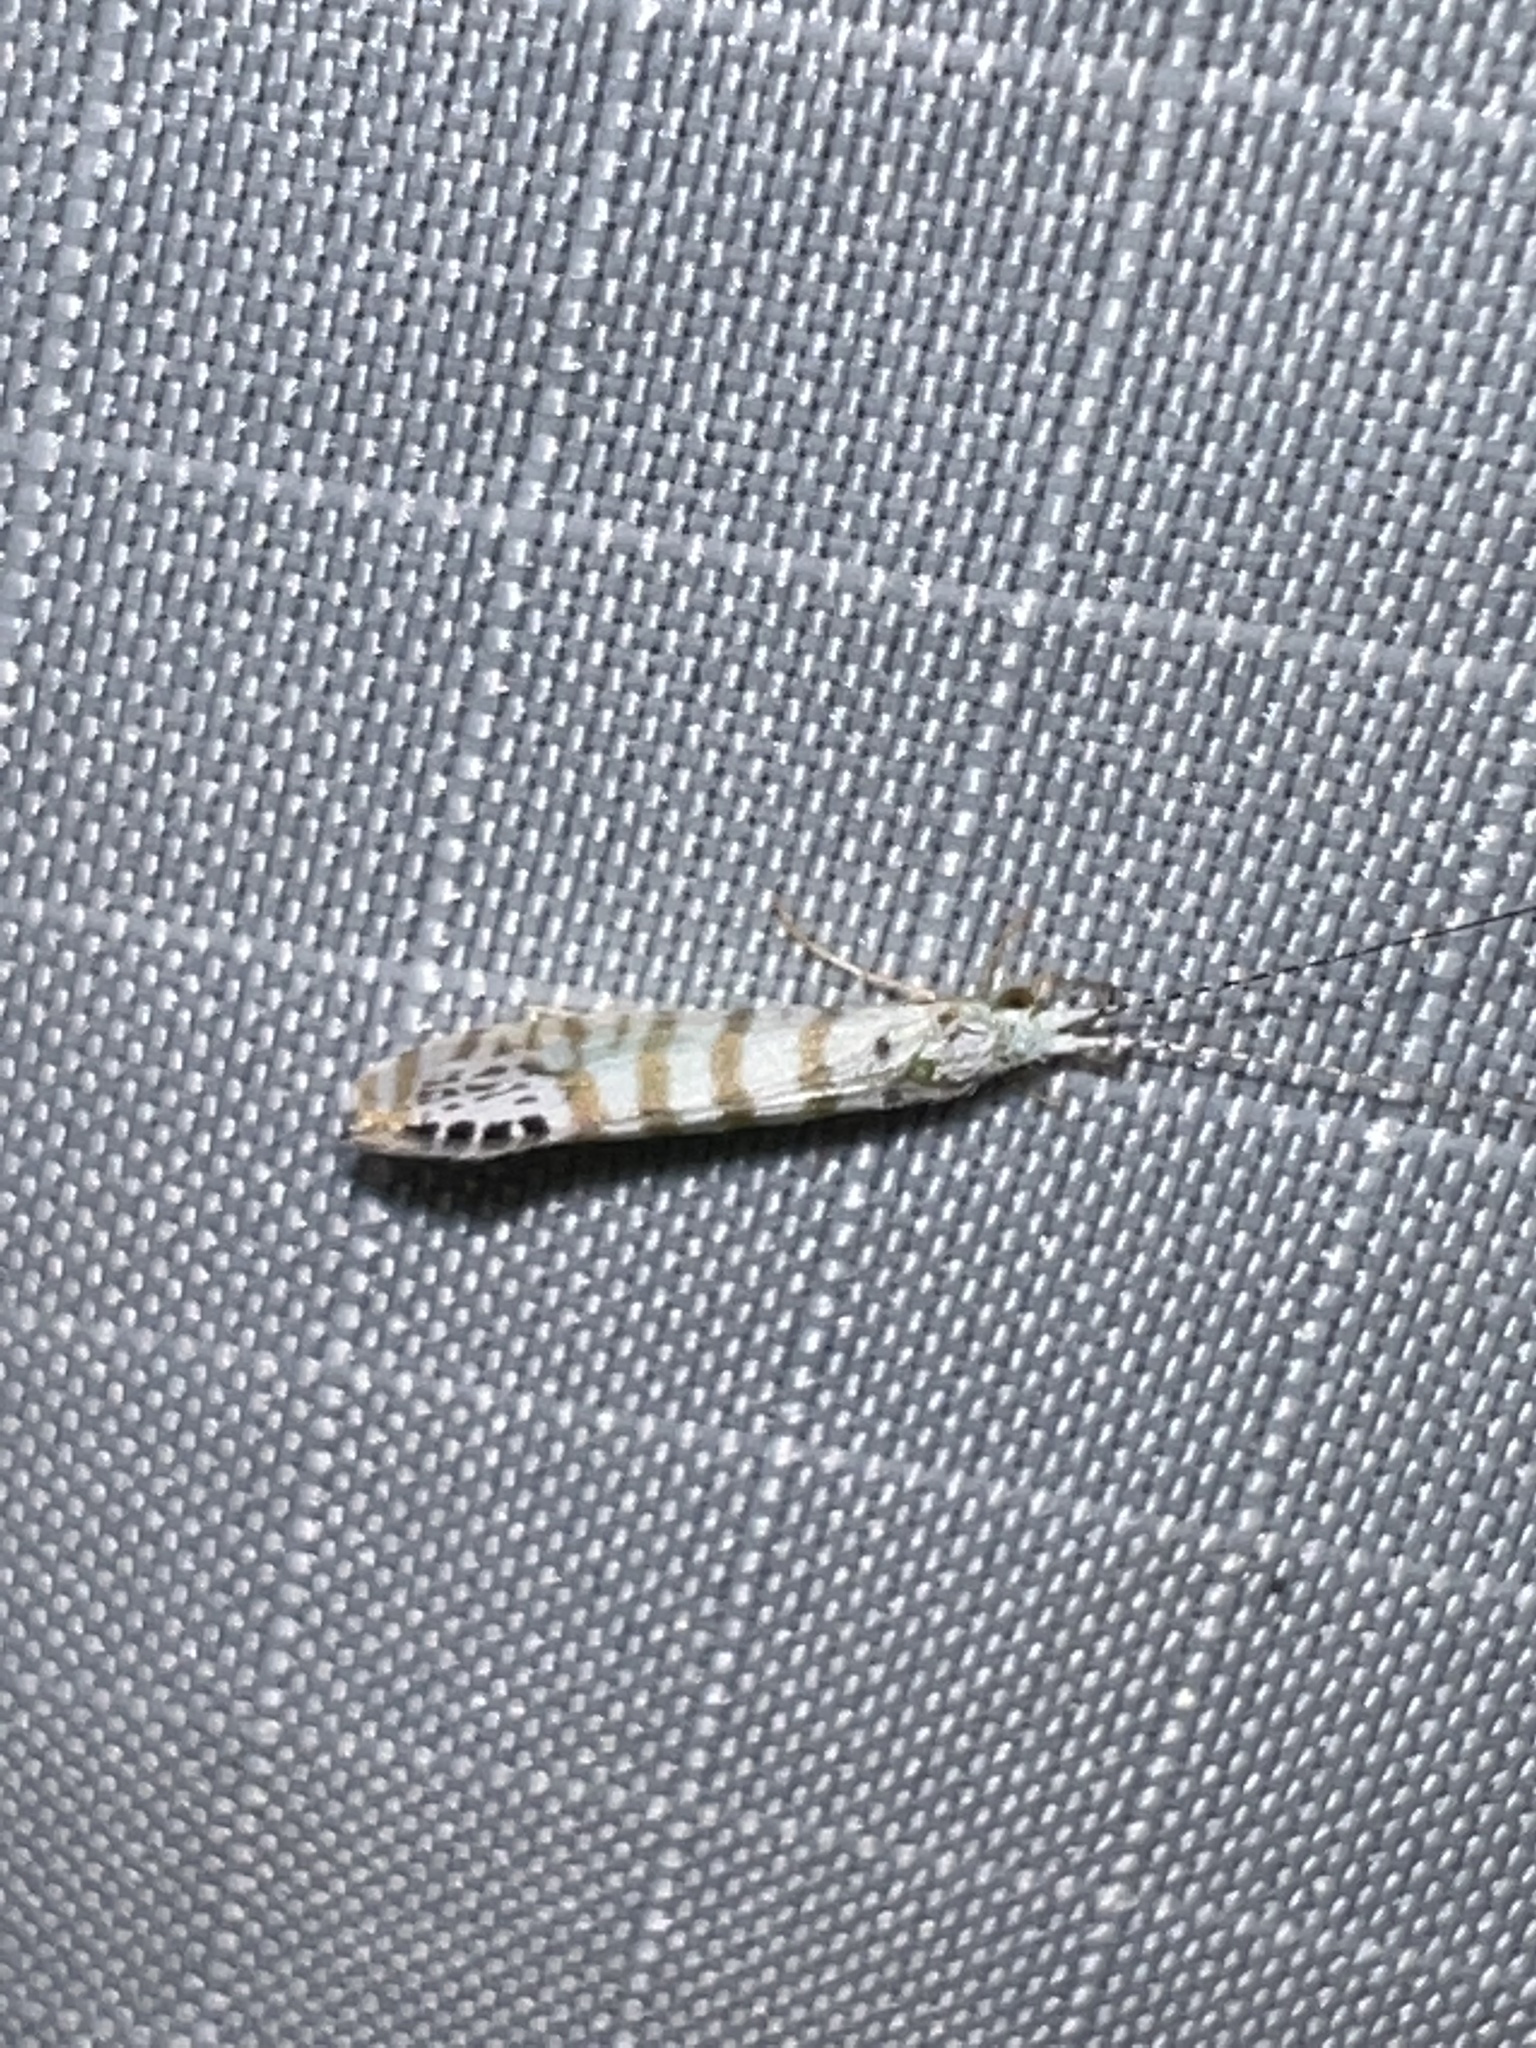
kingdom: Animalia
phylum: Arthropoda
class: Insecta
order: Trichoptera
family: Leptoceridae
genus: Nectopsyche
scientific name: Nectopsyche exquisita
